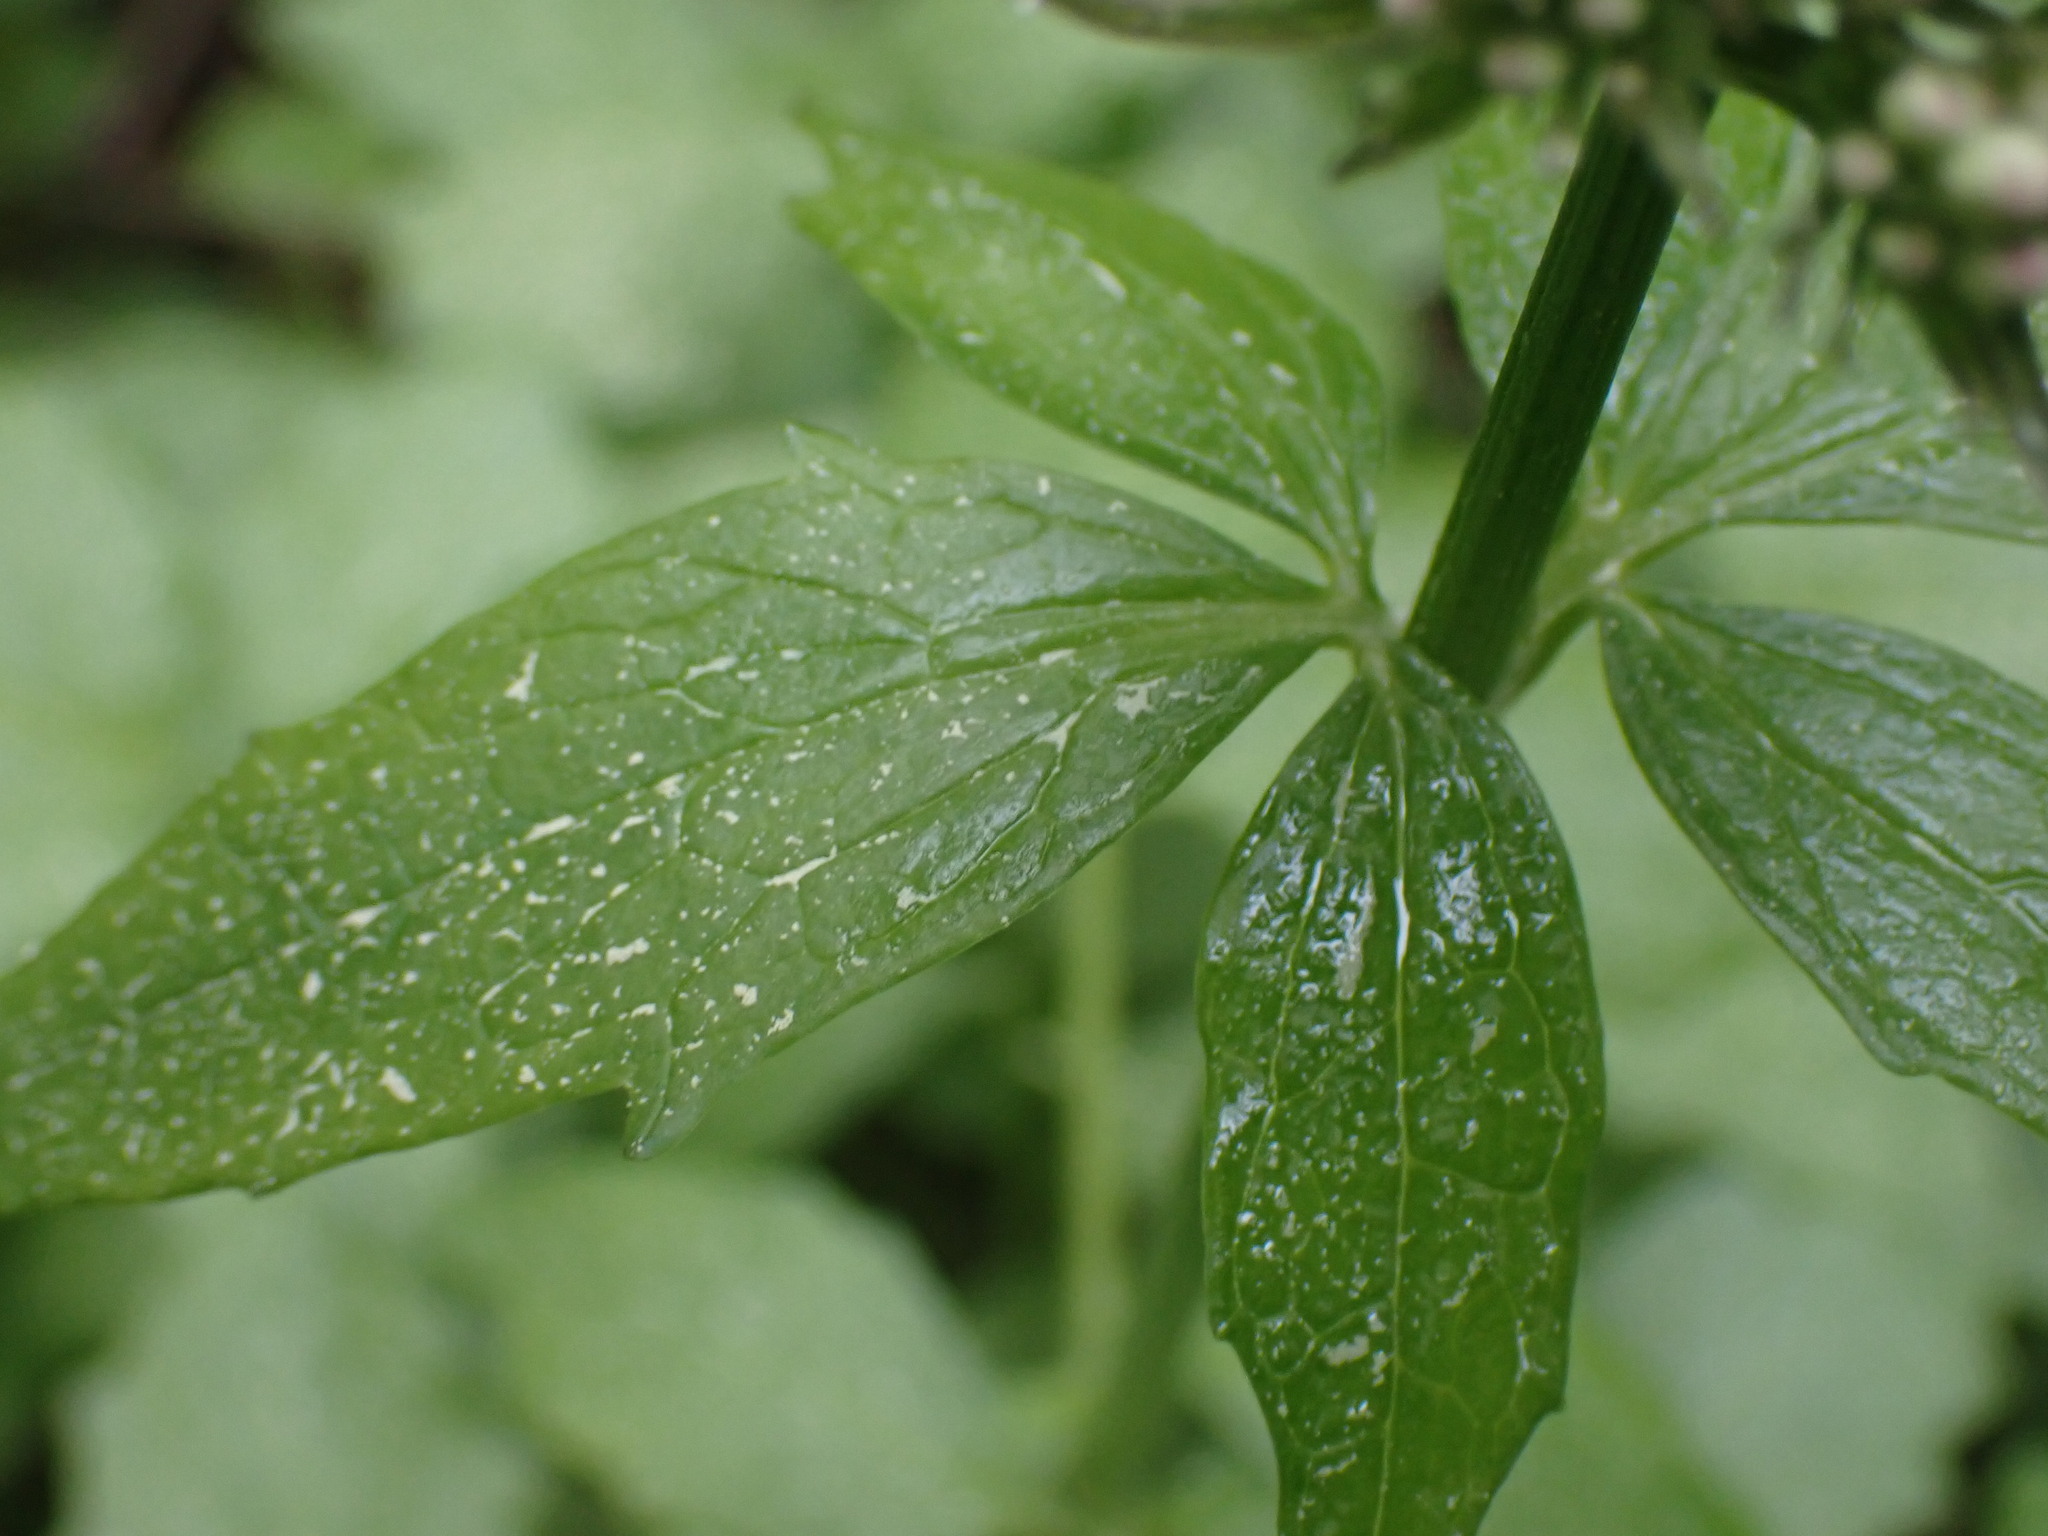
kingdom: Plantae
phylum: Tracheophyta
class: Magnoliopsida
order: Dipsacales
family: Caprifoliaceae
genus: Valeriana
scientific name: Valeriana sitchensis
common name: Pacific valerian
